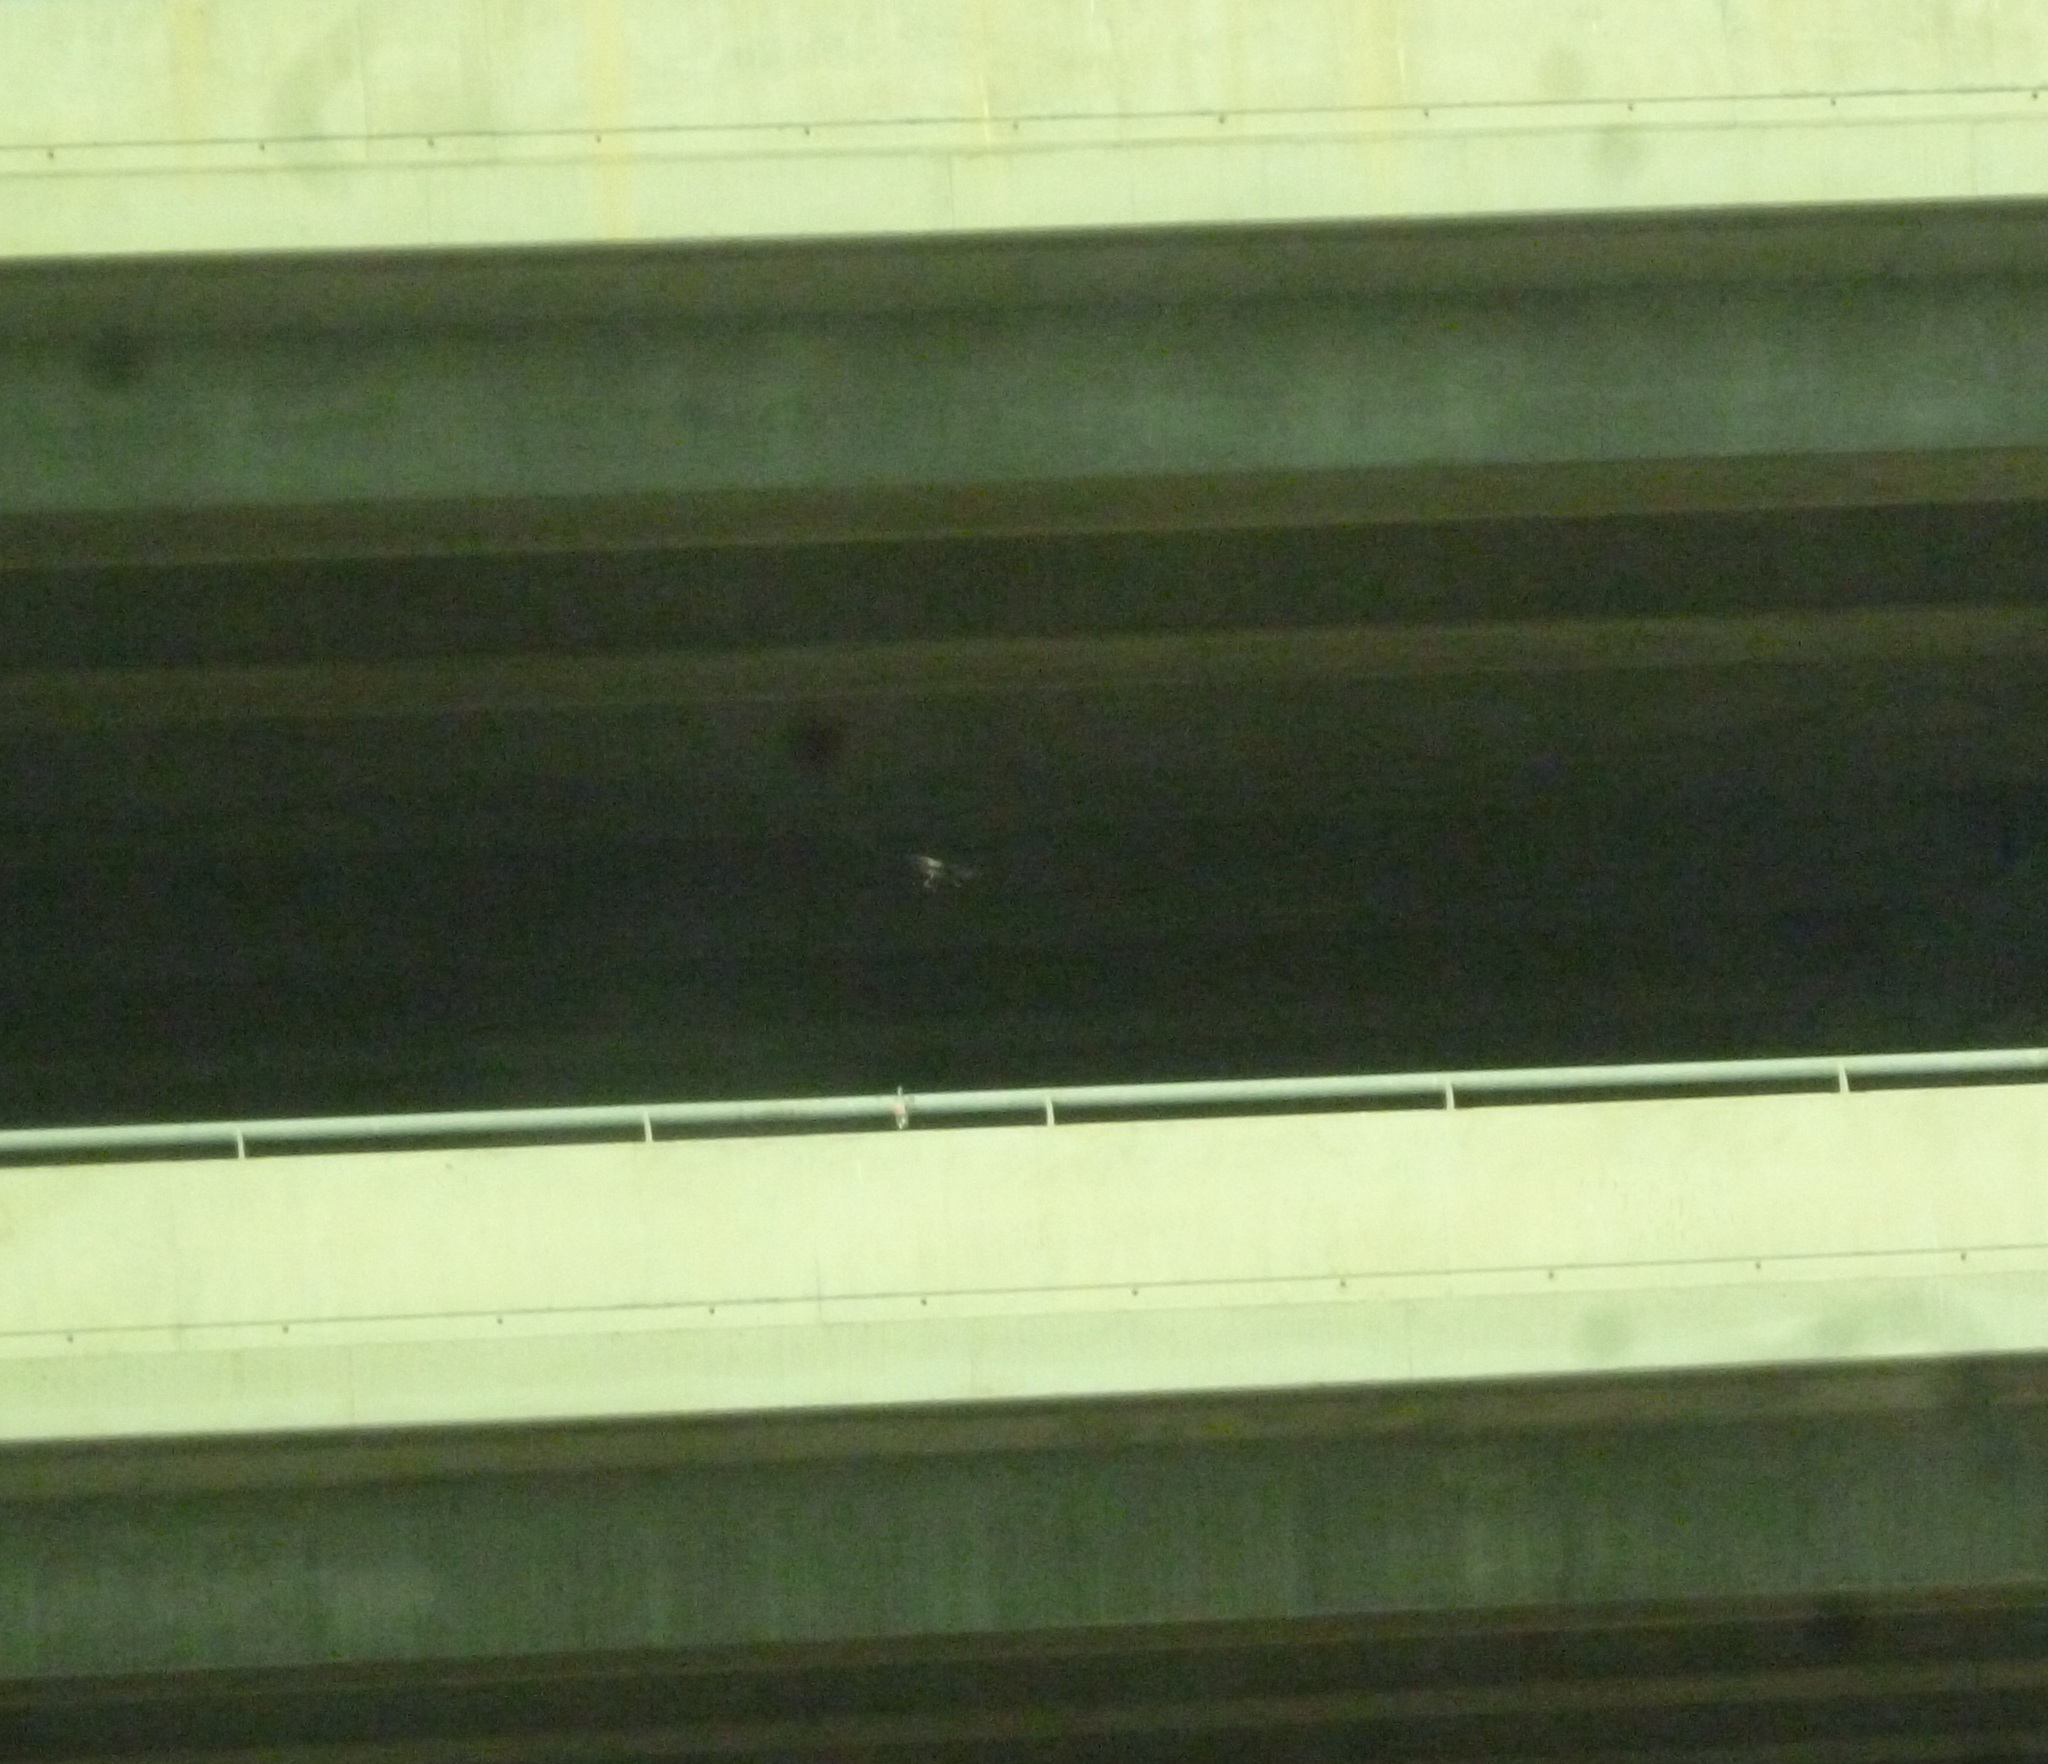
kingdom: Animalia
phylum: Chordata
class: Aves
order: Passeriformes
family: Corvidae
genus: Corvus
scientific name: Corvus cornix
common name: Hooded crow
